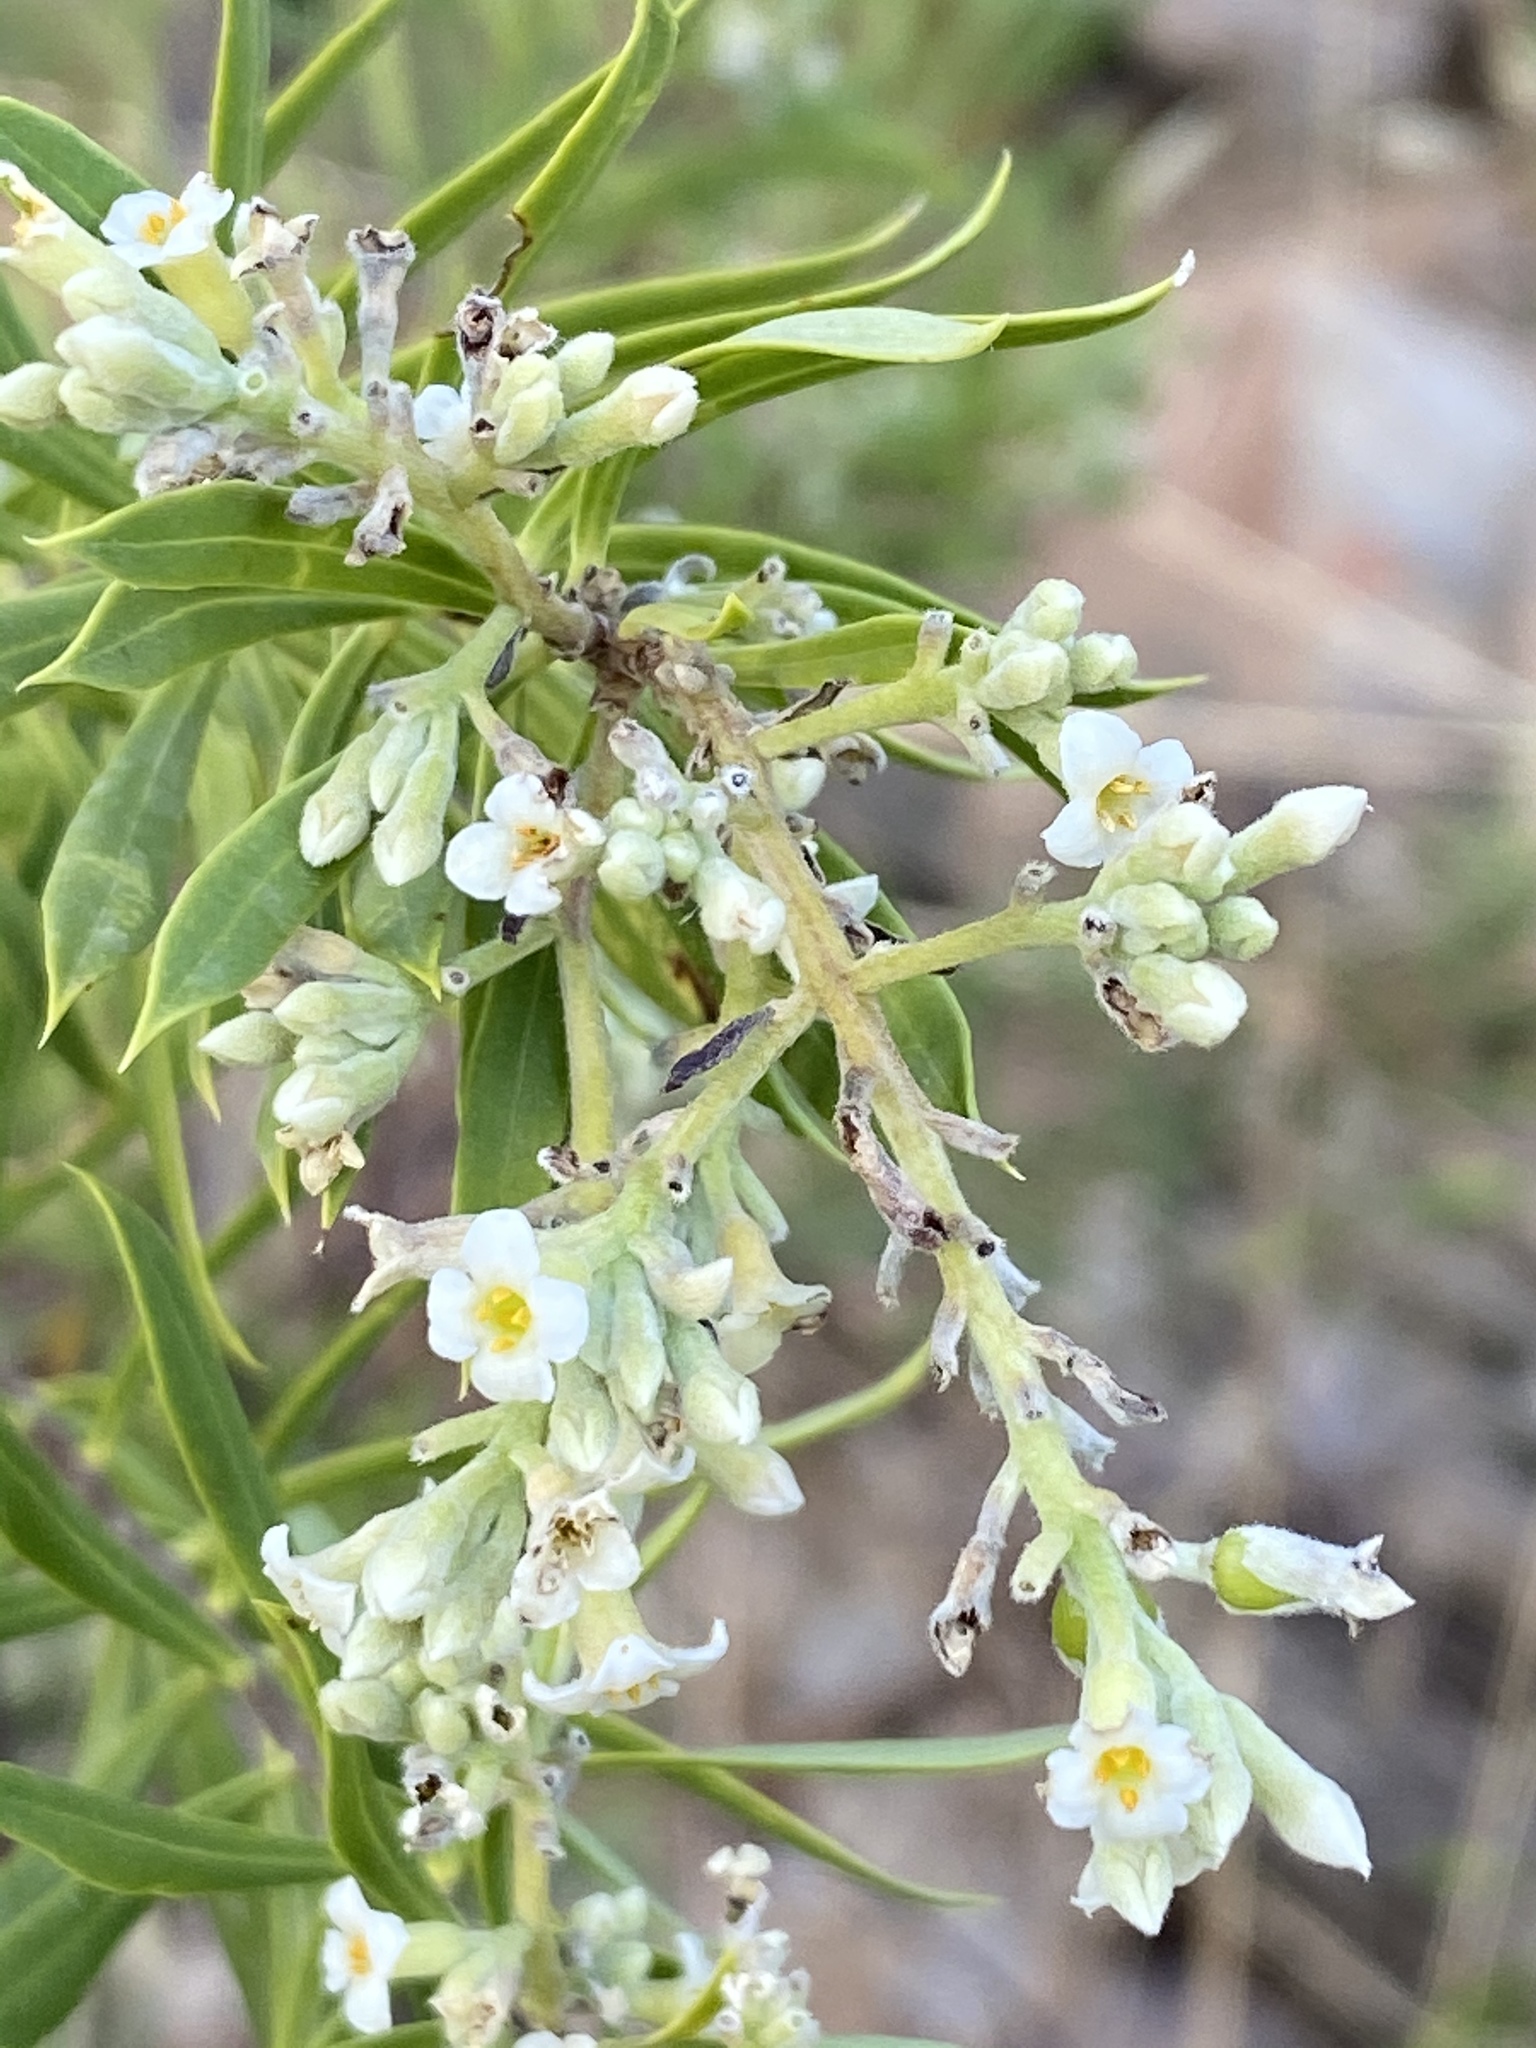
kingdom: Plantae
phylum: Tracheophyta
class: Magnoliopsida
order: Malvales
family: Thymelaeaceae
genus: Daphne
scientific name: Daphne gnidium
